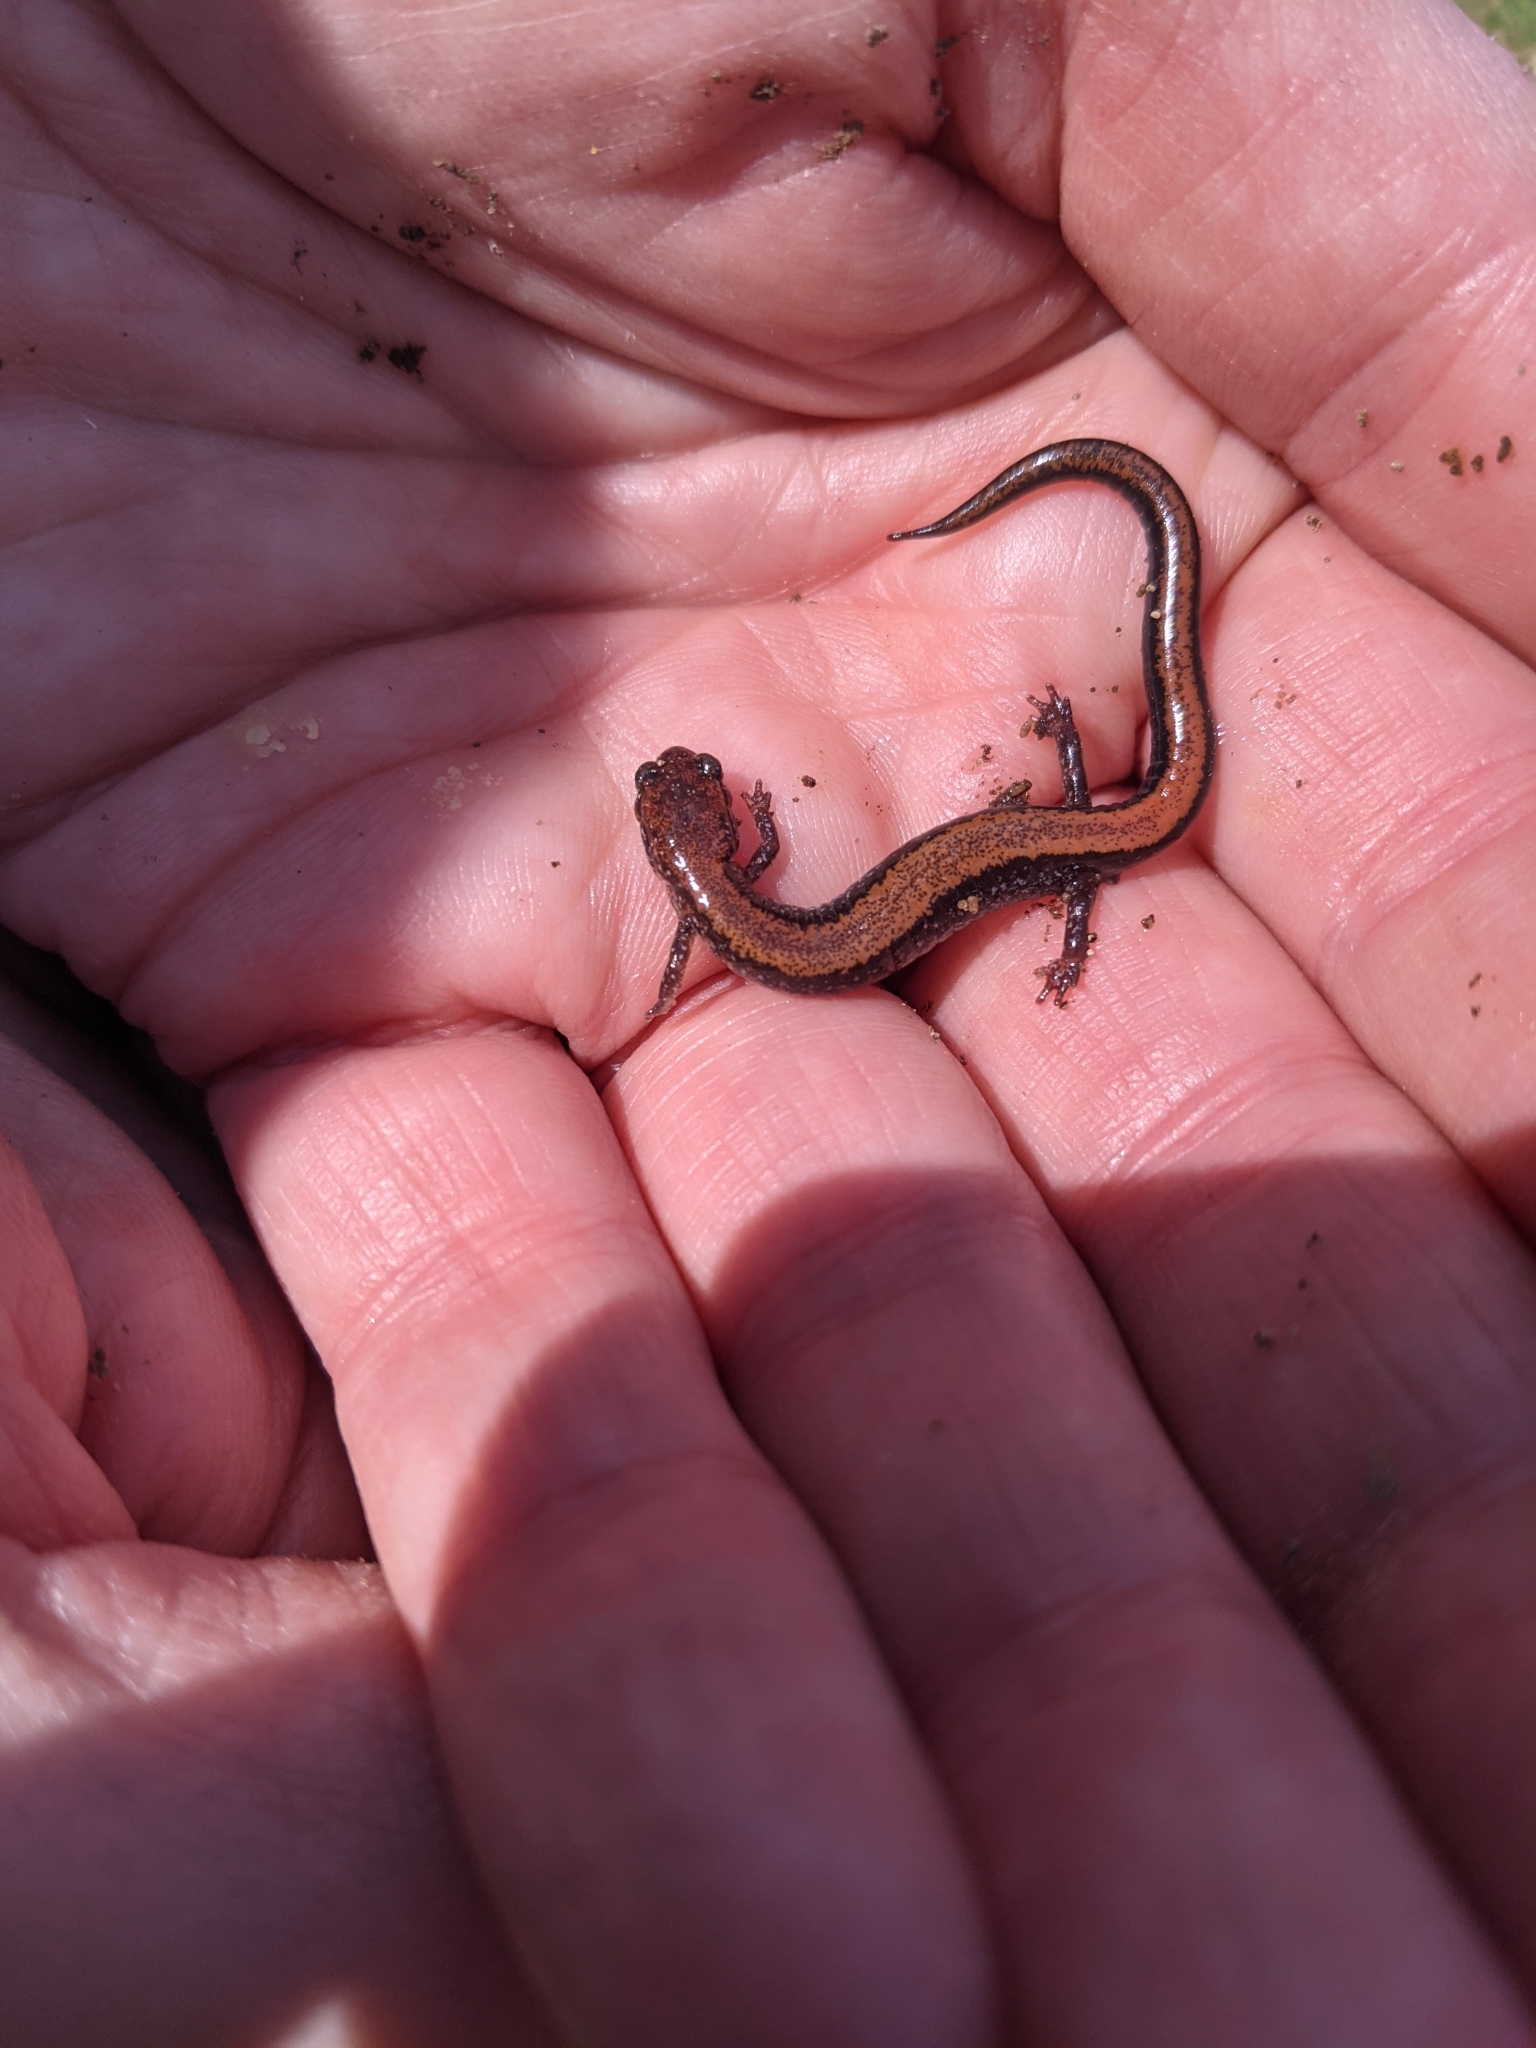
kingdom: Animalia
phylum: Chordata
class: Amphibia
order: Caudata
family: Plethodontidae
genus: Plethodon
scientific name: Plethodon cinereus
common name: Redback salamander
